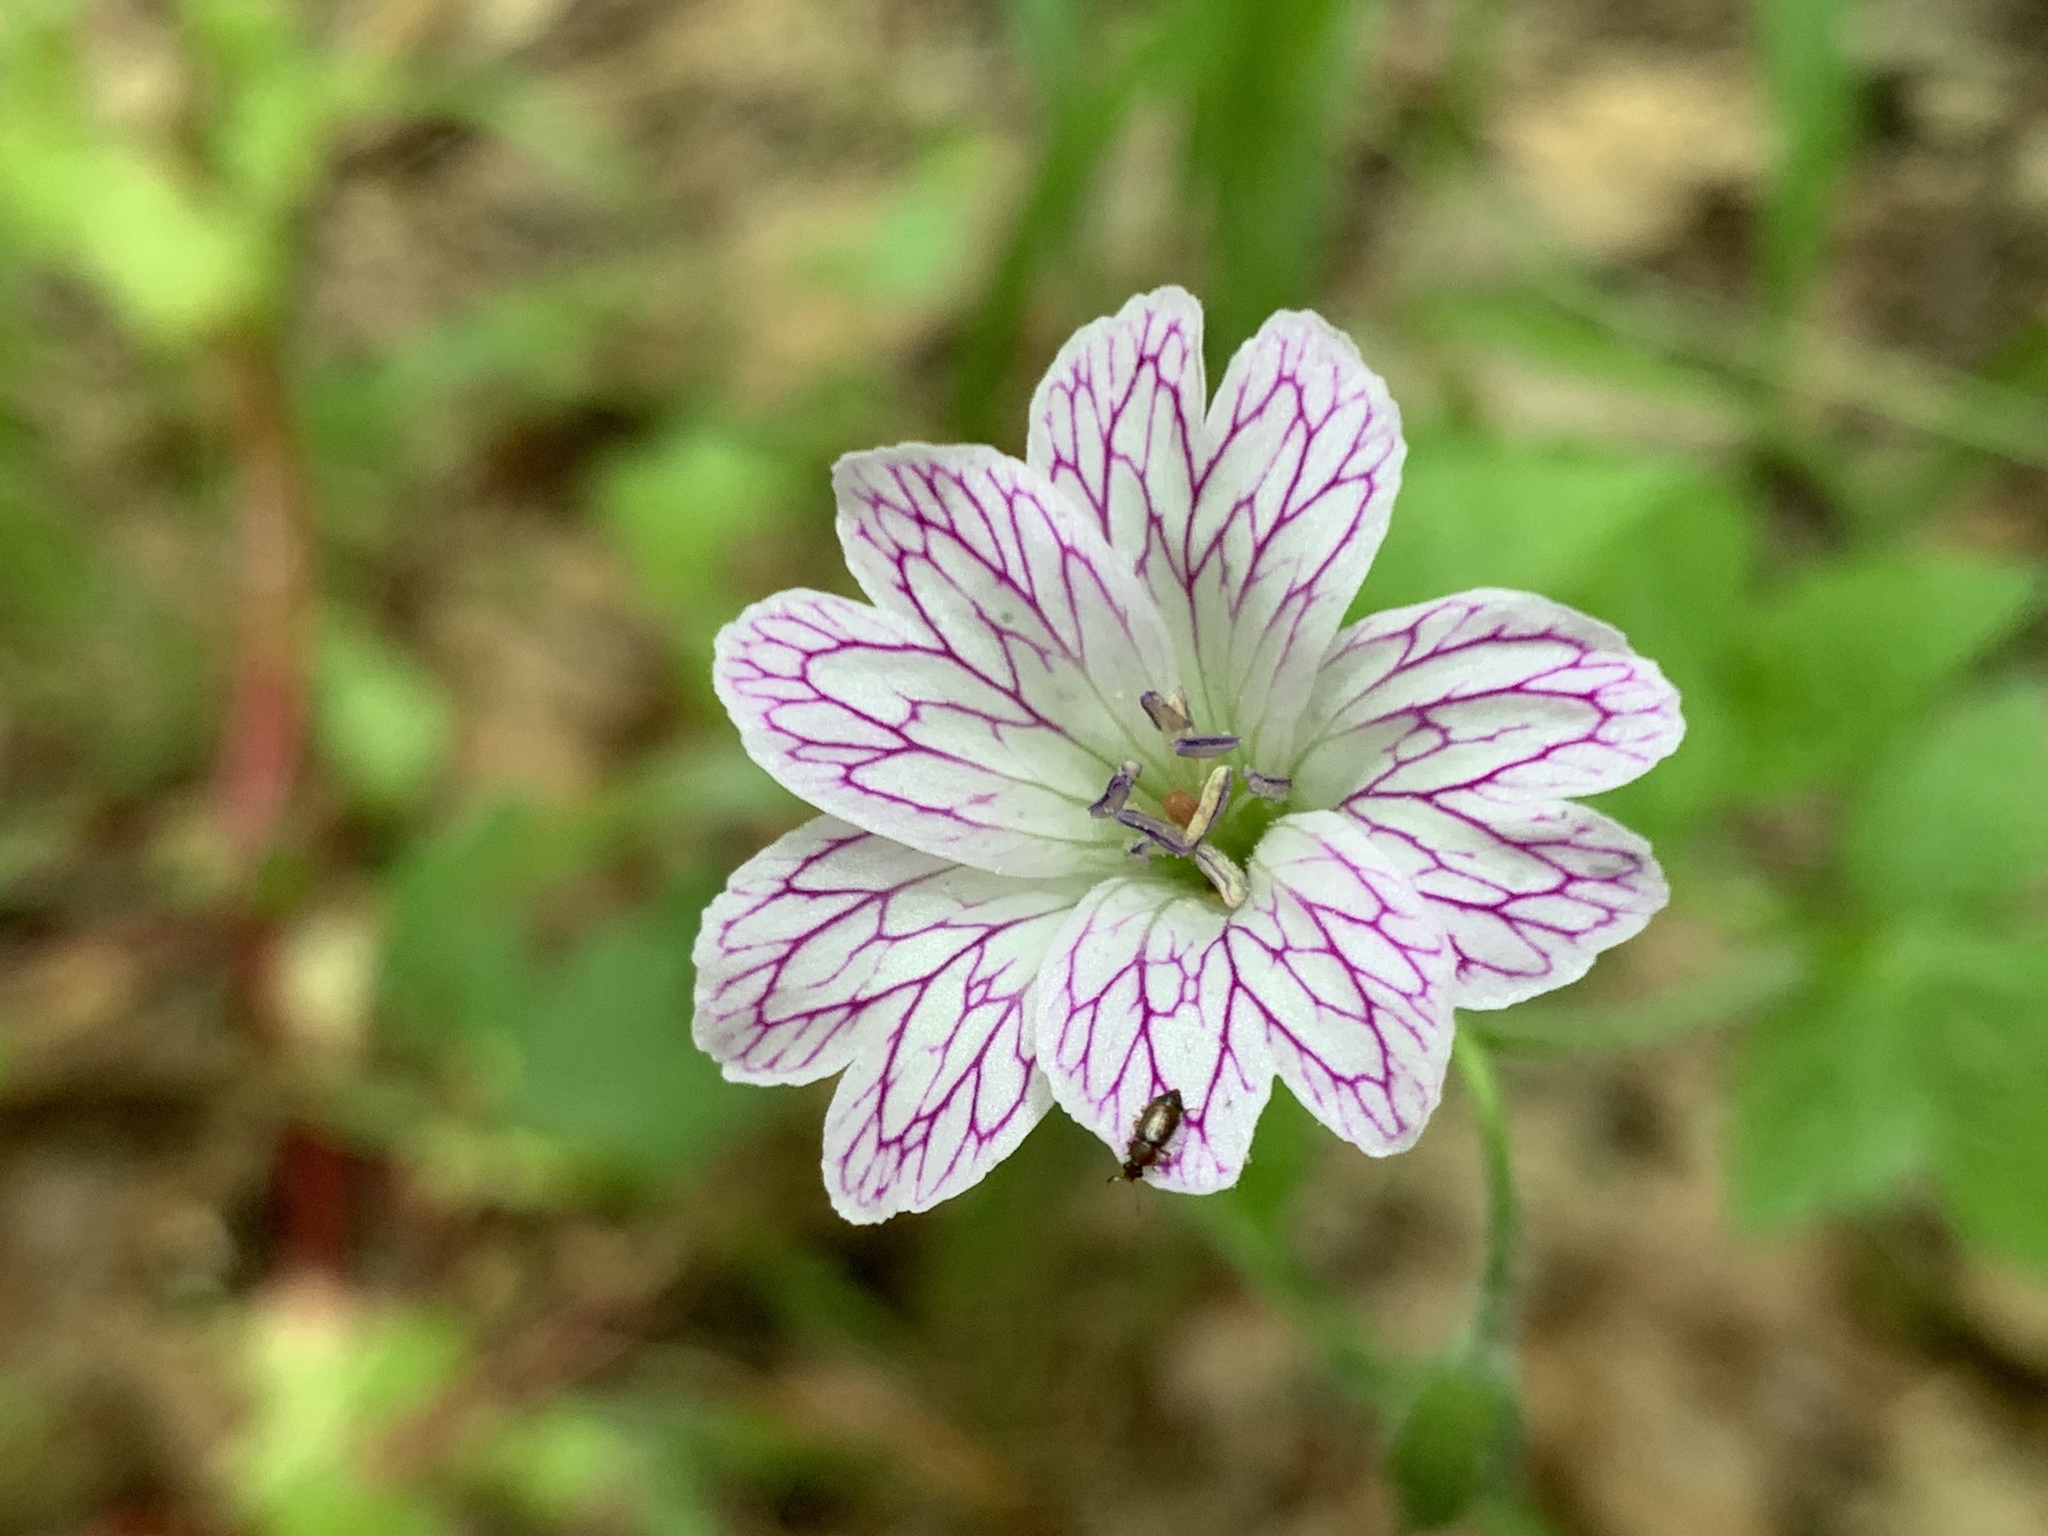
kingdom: Plantae
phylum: Tracheophyta
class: Magnoliopsida
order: Geraniales
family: Geraniaceae
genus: Geranium
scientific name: Geranium versicolor
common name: Pencilled crane's-bill
